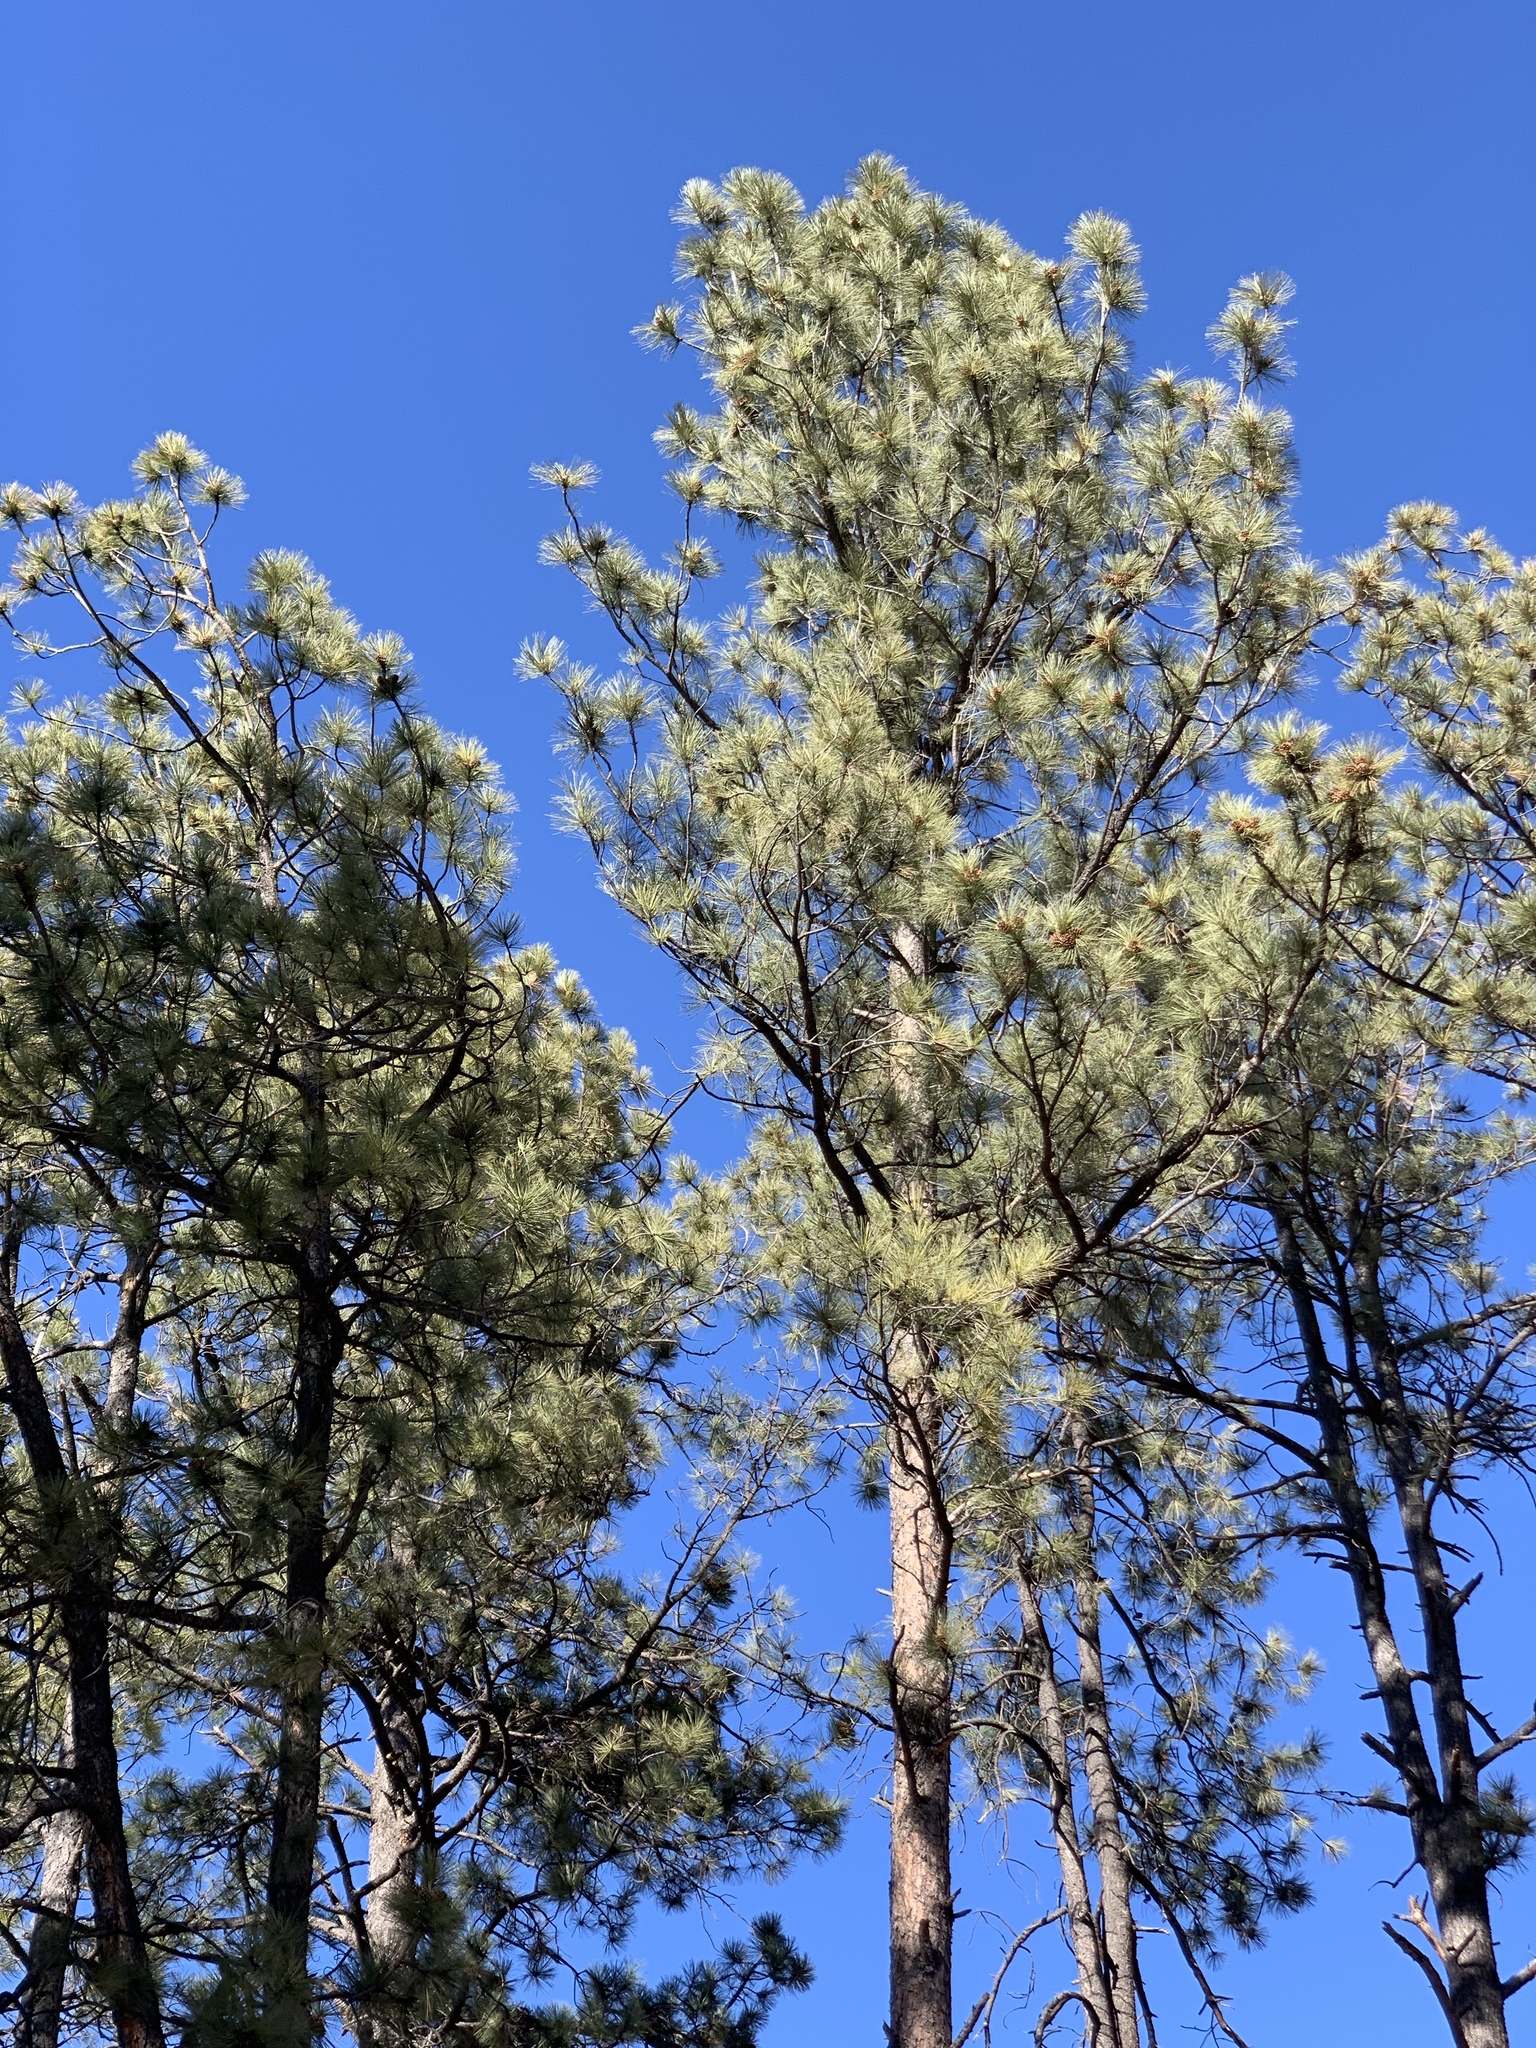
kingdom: Plantae
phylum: Tracheophyta
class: Pinopsida
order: Pinales
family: Pinaceae
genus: Pinus
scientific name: Pinus ponderosa
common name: Western yellow-pine
